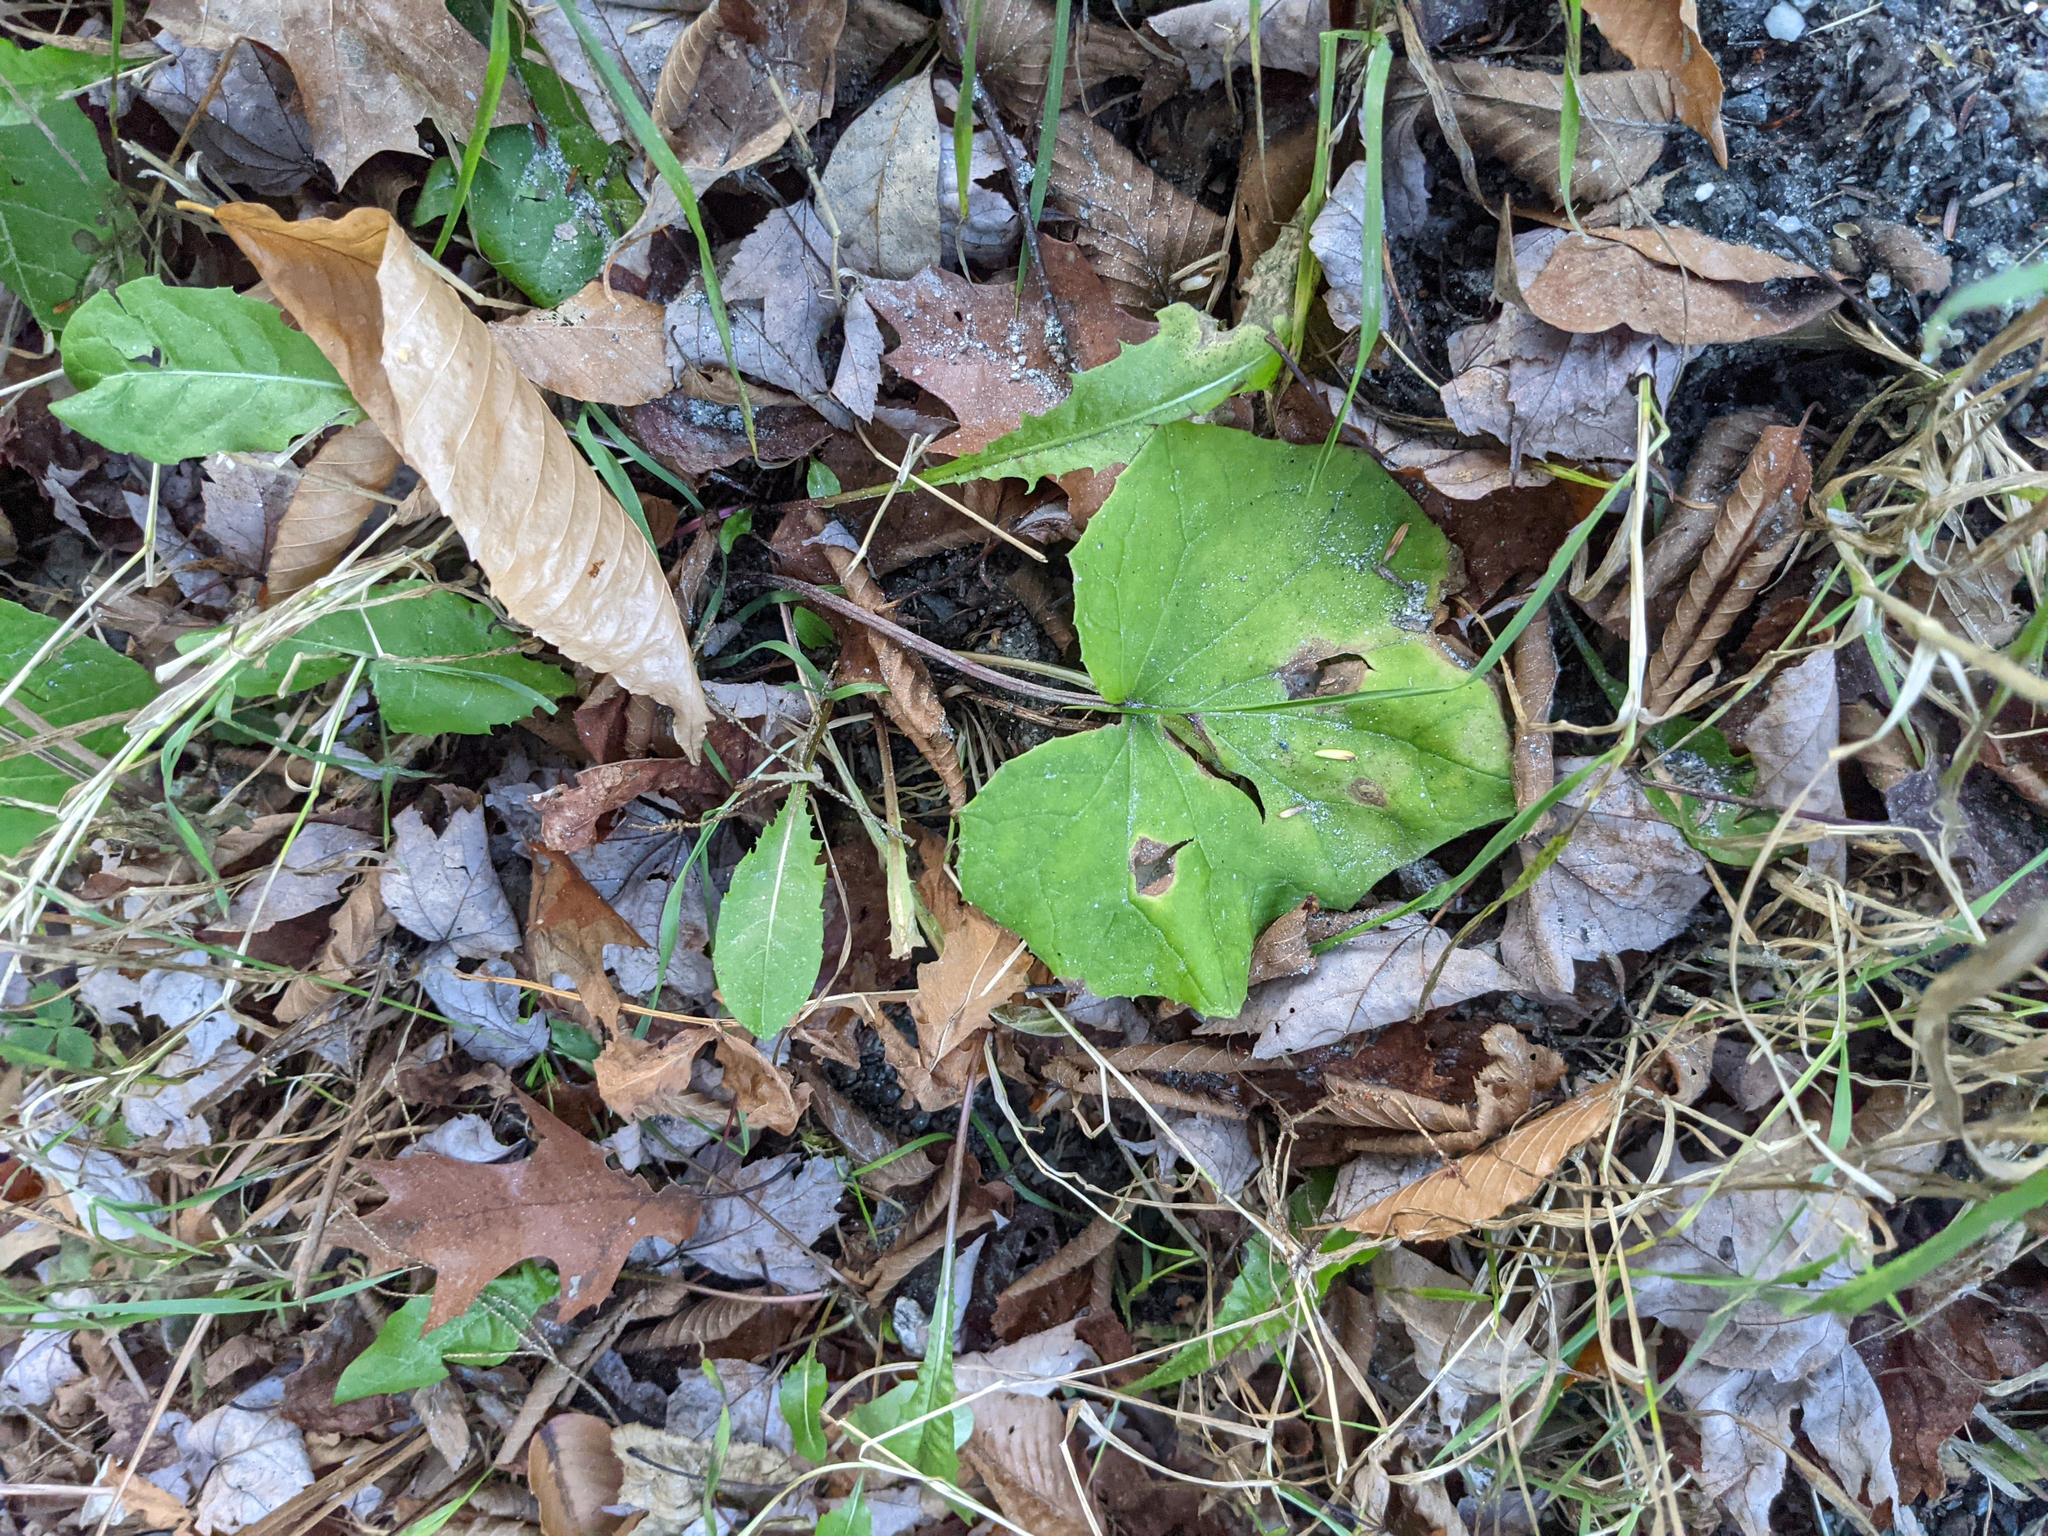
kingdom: Plantae
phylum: Tracheophyta
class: Magnoliopsida
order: Asterales
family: Asteraceae
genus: Tussilago
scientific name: Tussilago farfara
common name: Coltsfoot
